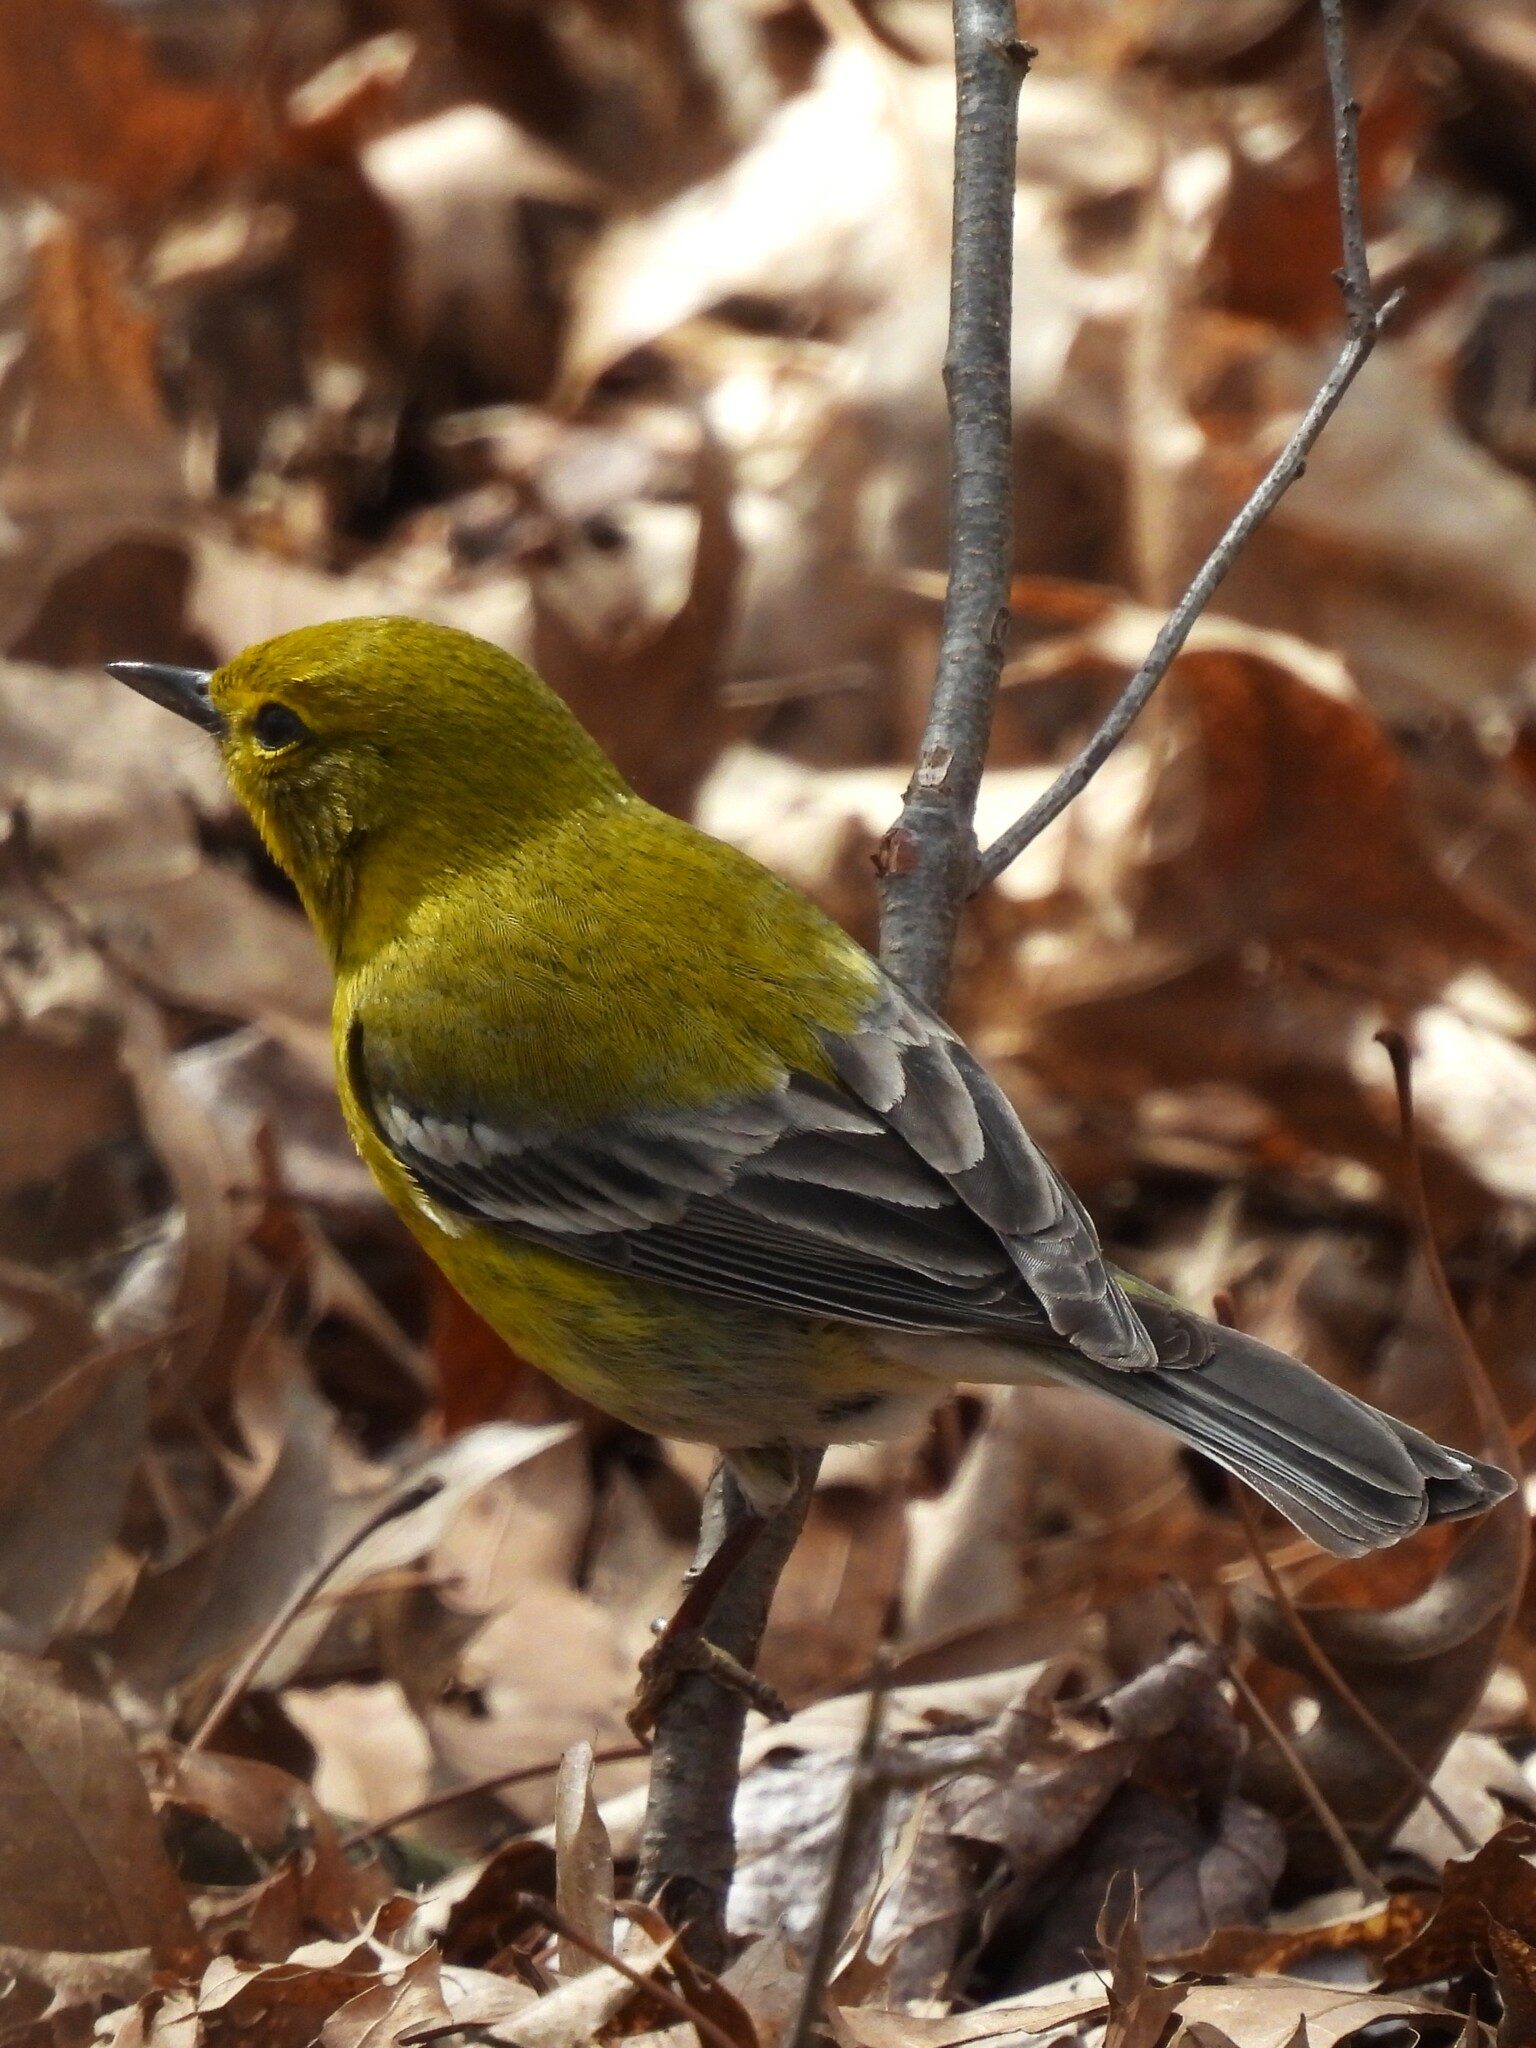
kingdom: Animalia
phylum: Chordata
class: Aves
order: Passeriformes
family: Parulidae
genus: Setophaga
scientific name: Setophaga pinus
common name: Pine warbler
